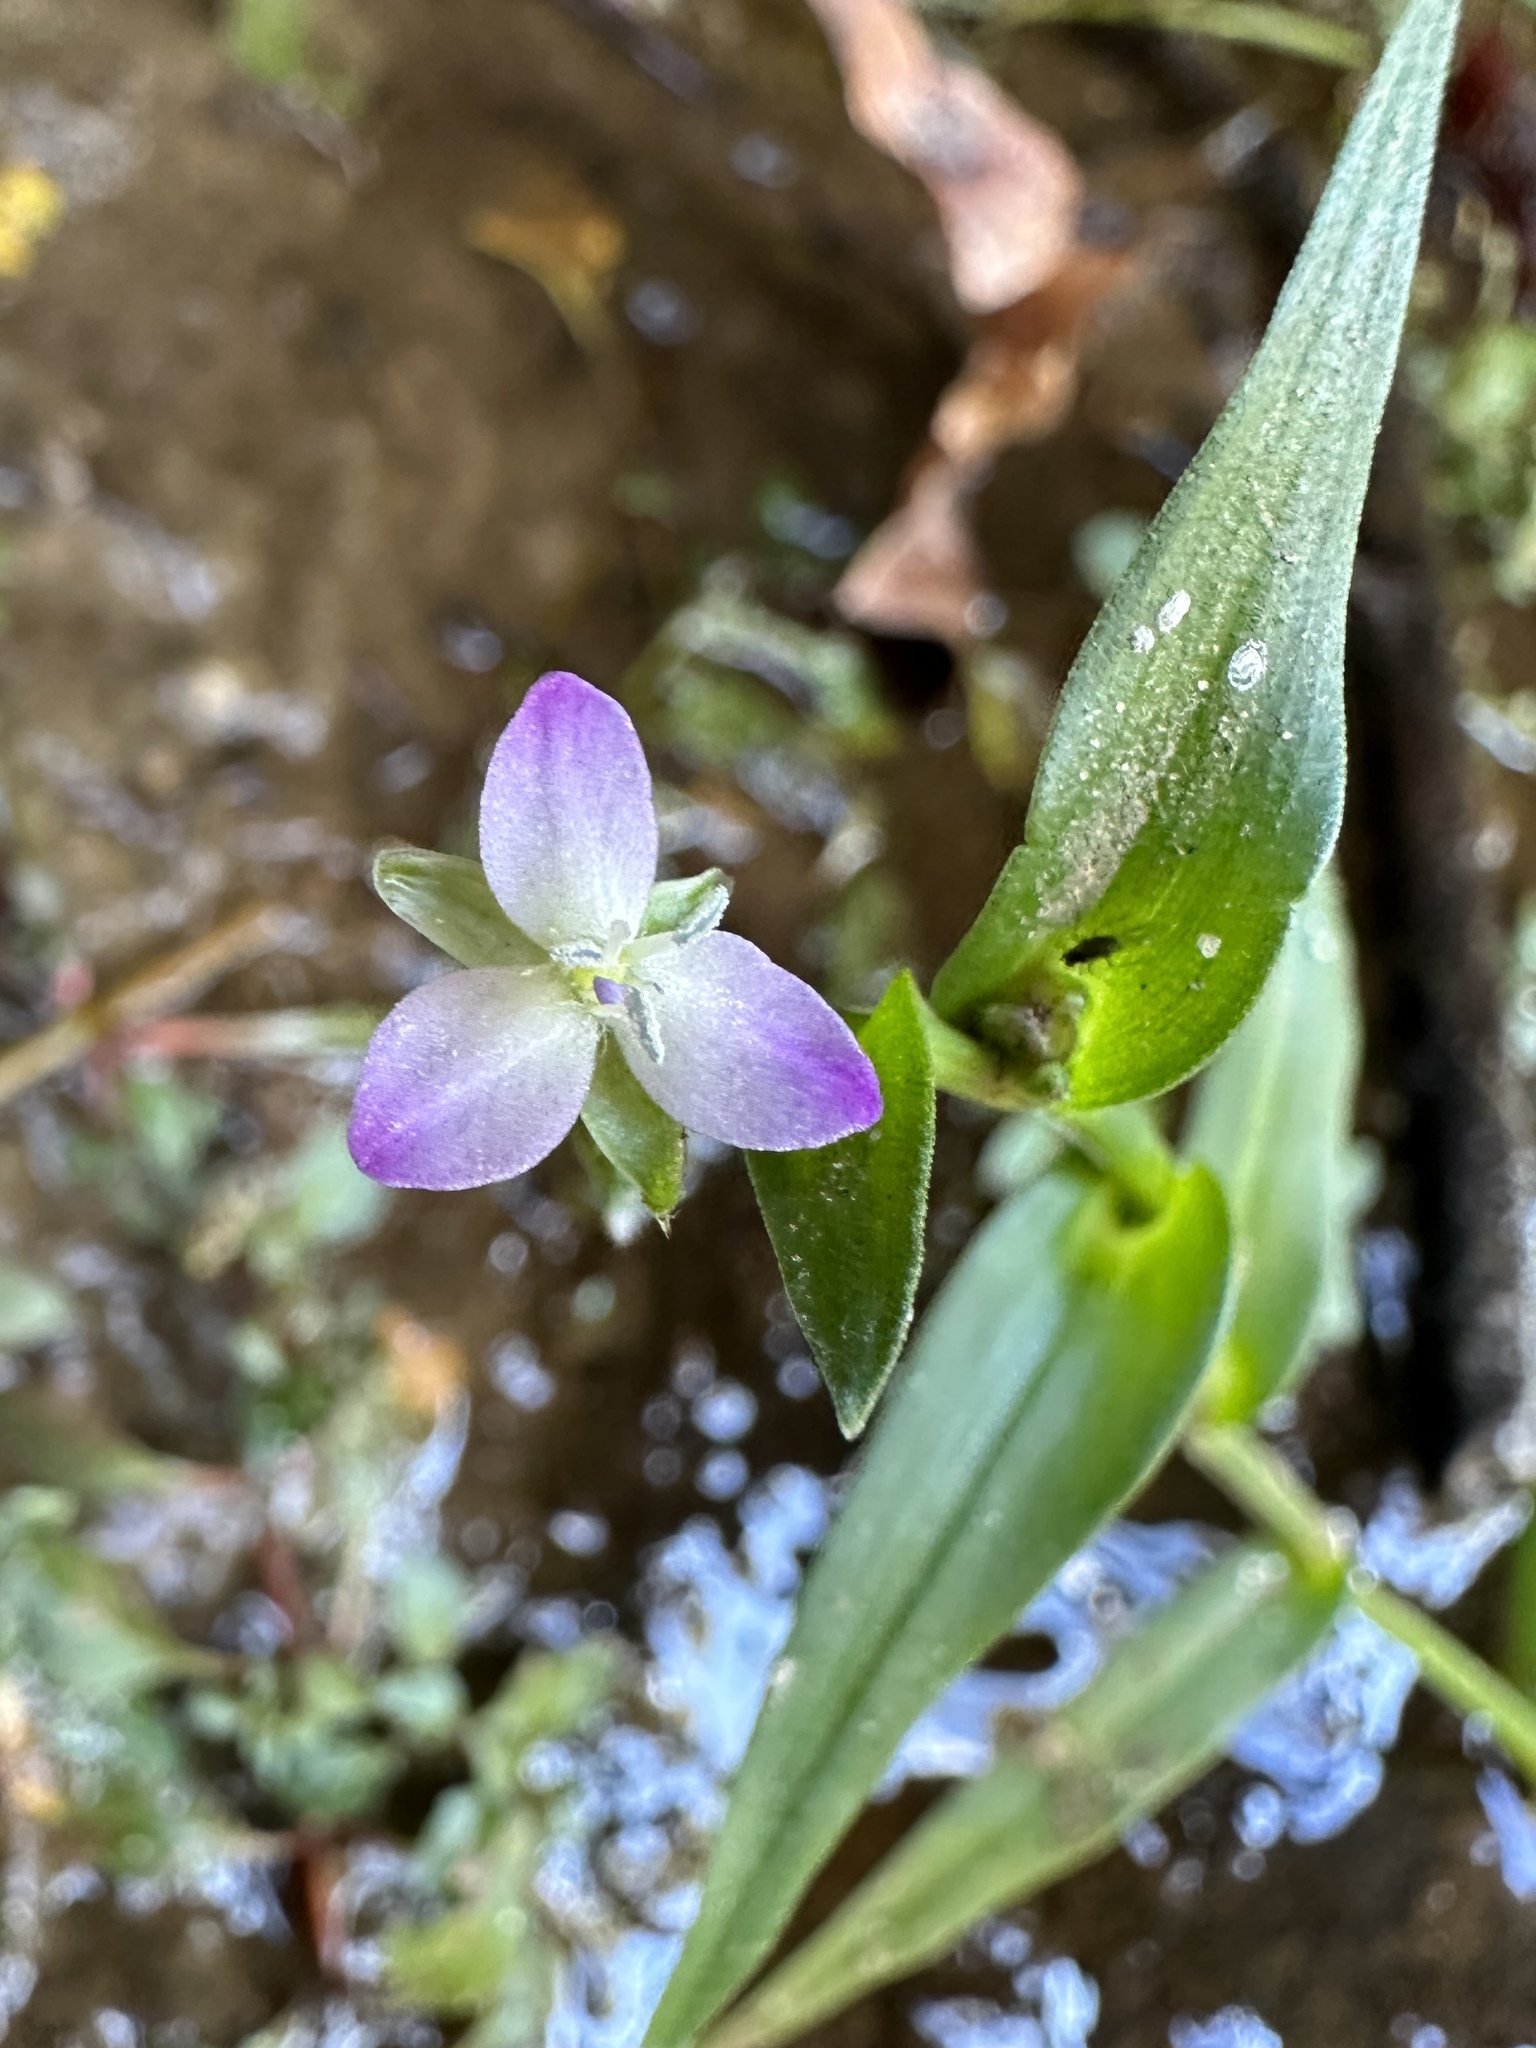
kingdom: Plantae
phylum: Tracheophyta
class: Liliopsida
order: Commelinales
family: Commelinaceae
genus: Murdannia
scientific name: Murdannia keisak
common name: Wartremoving herb
